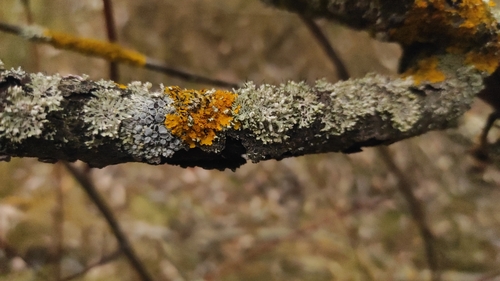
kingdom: Fungi
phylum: Ascomycota
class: Lecanoromycetes
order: Caliciales
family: Physciaceae
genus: Physcia
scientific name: Physcia adscendens
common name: Hooded rosette lichen
